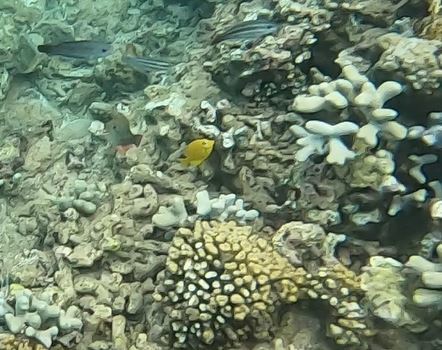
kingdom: Animalia
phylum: Chordata
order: Perciformes
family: Acanthuridae
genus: Acanthurus
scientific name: Acanthurus coeruleus
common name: Blue tang
